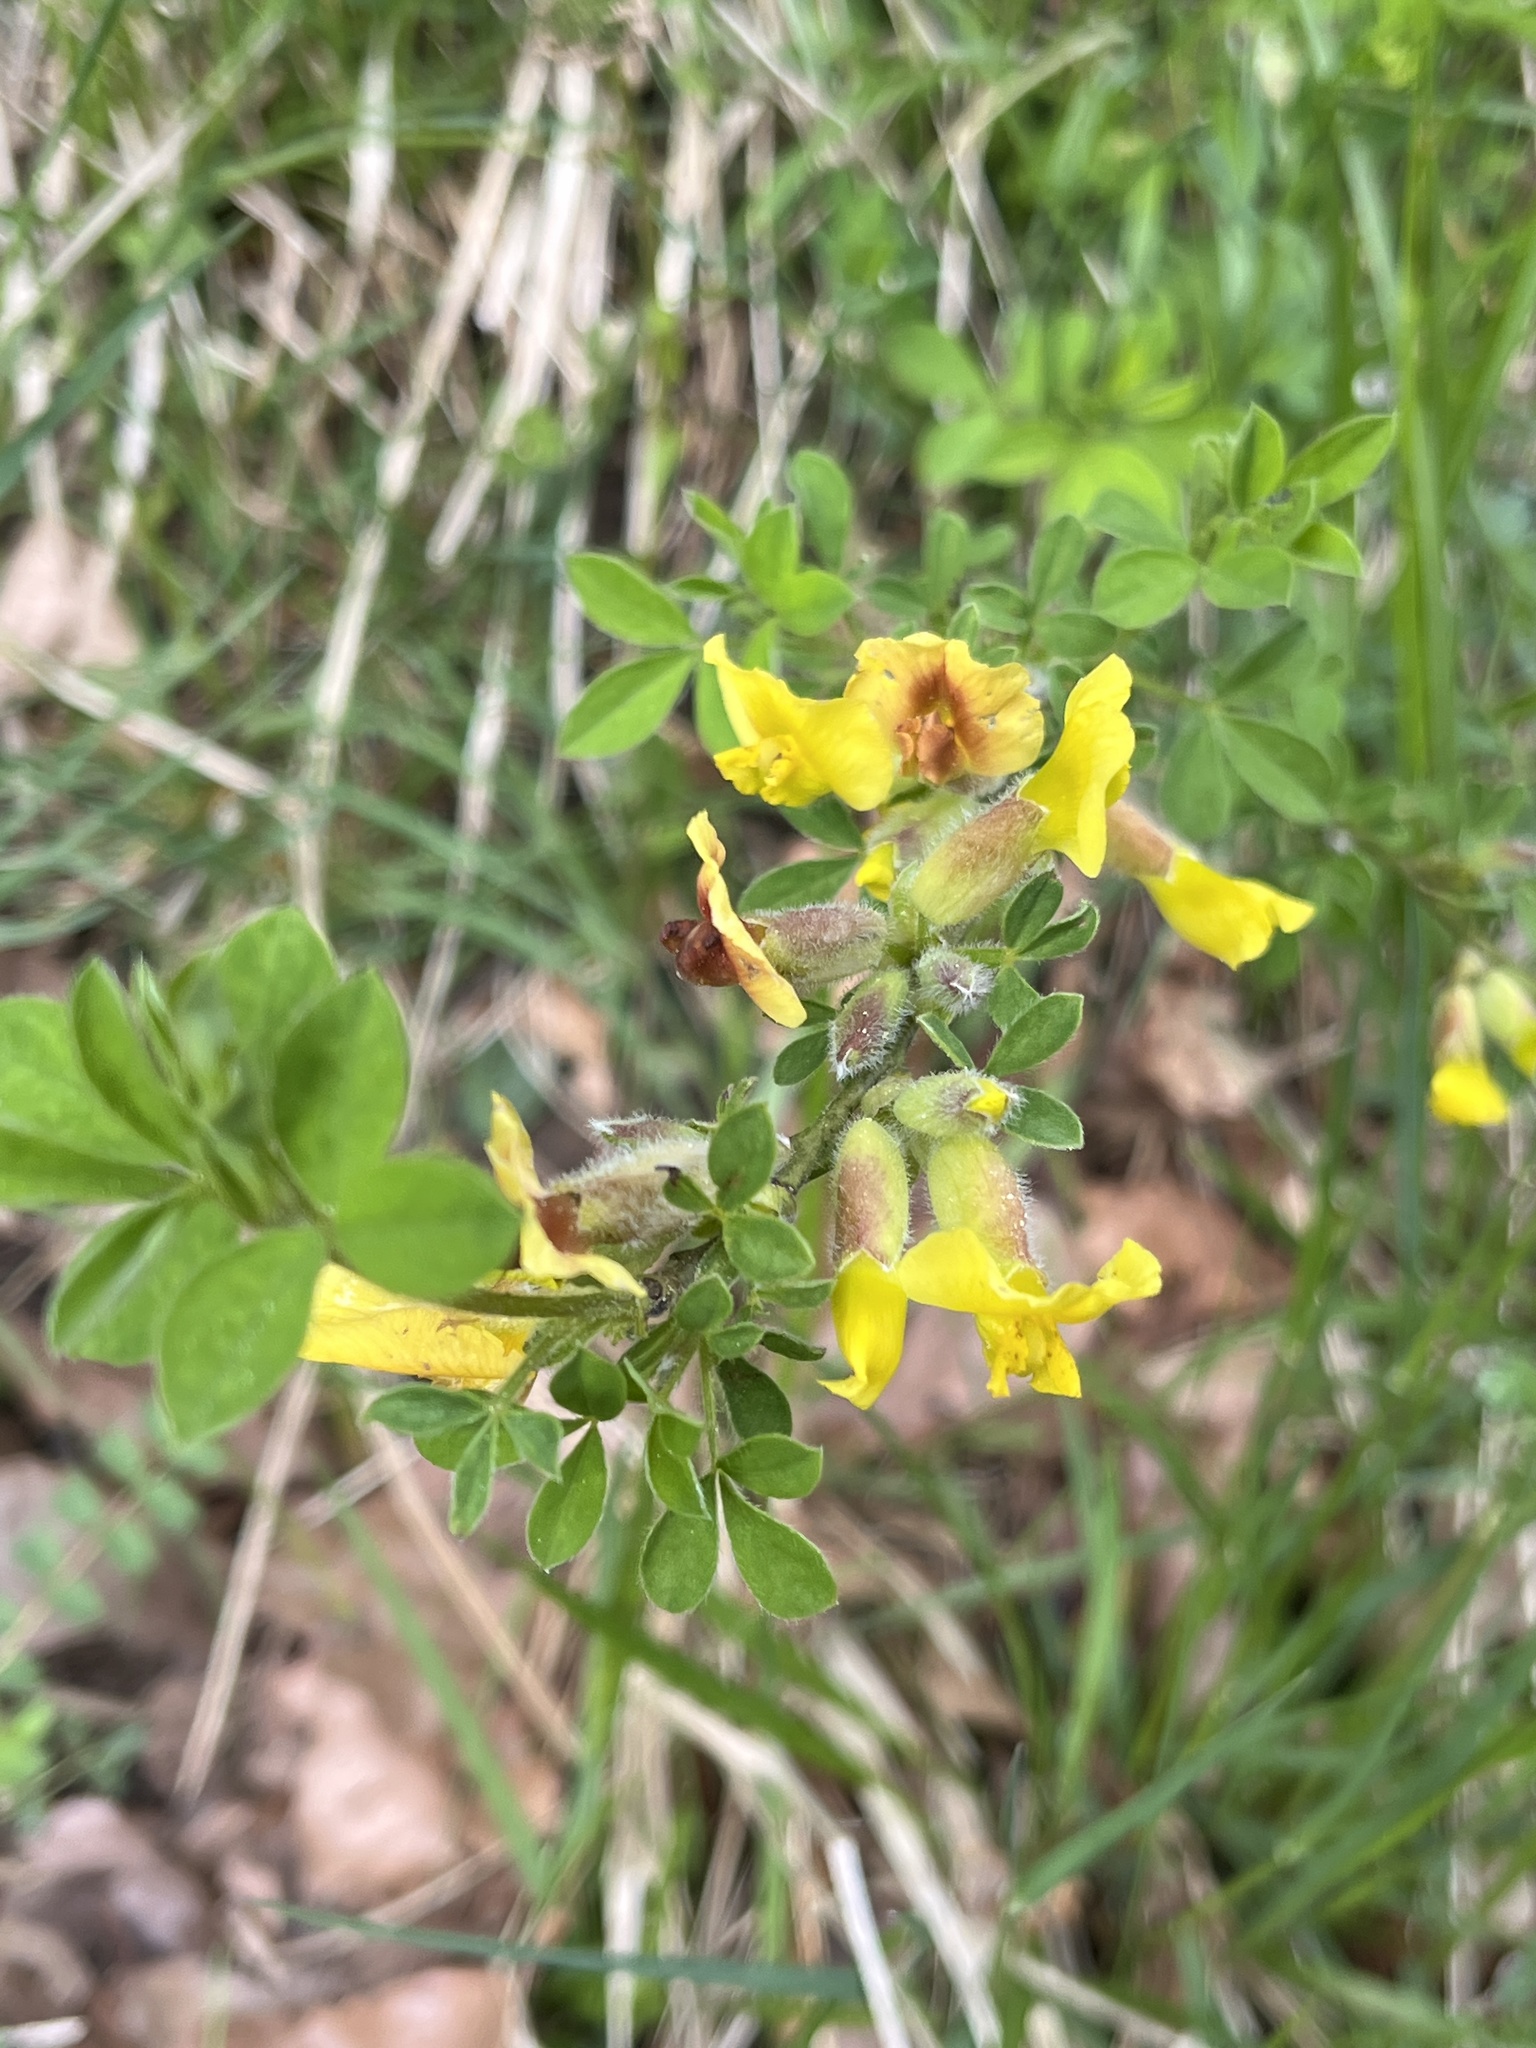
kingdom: Plantae
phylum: Tracheophyta
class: Magnoliopsida
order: Fabales
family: Fabaceae
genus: Chamaecytisus
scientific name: Chamaecytisus hirsutus
